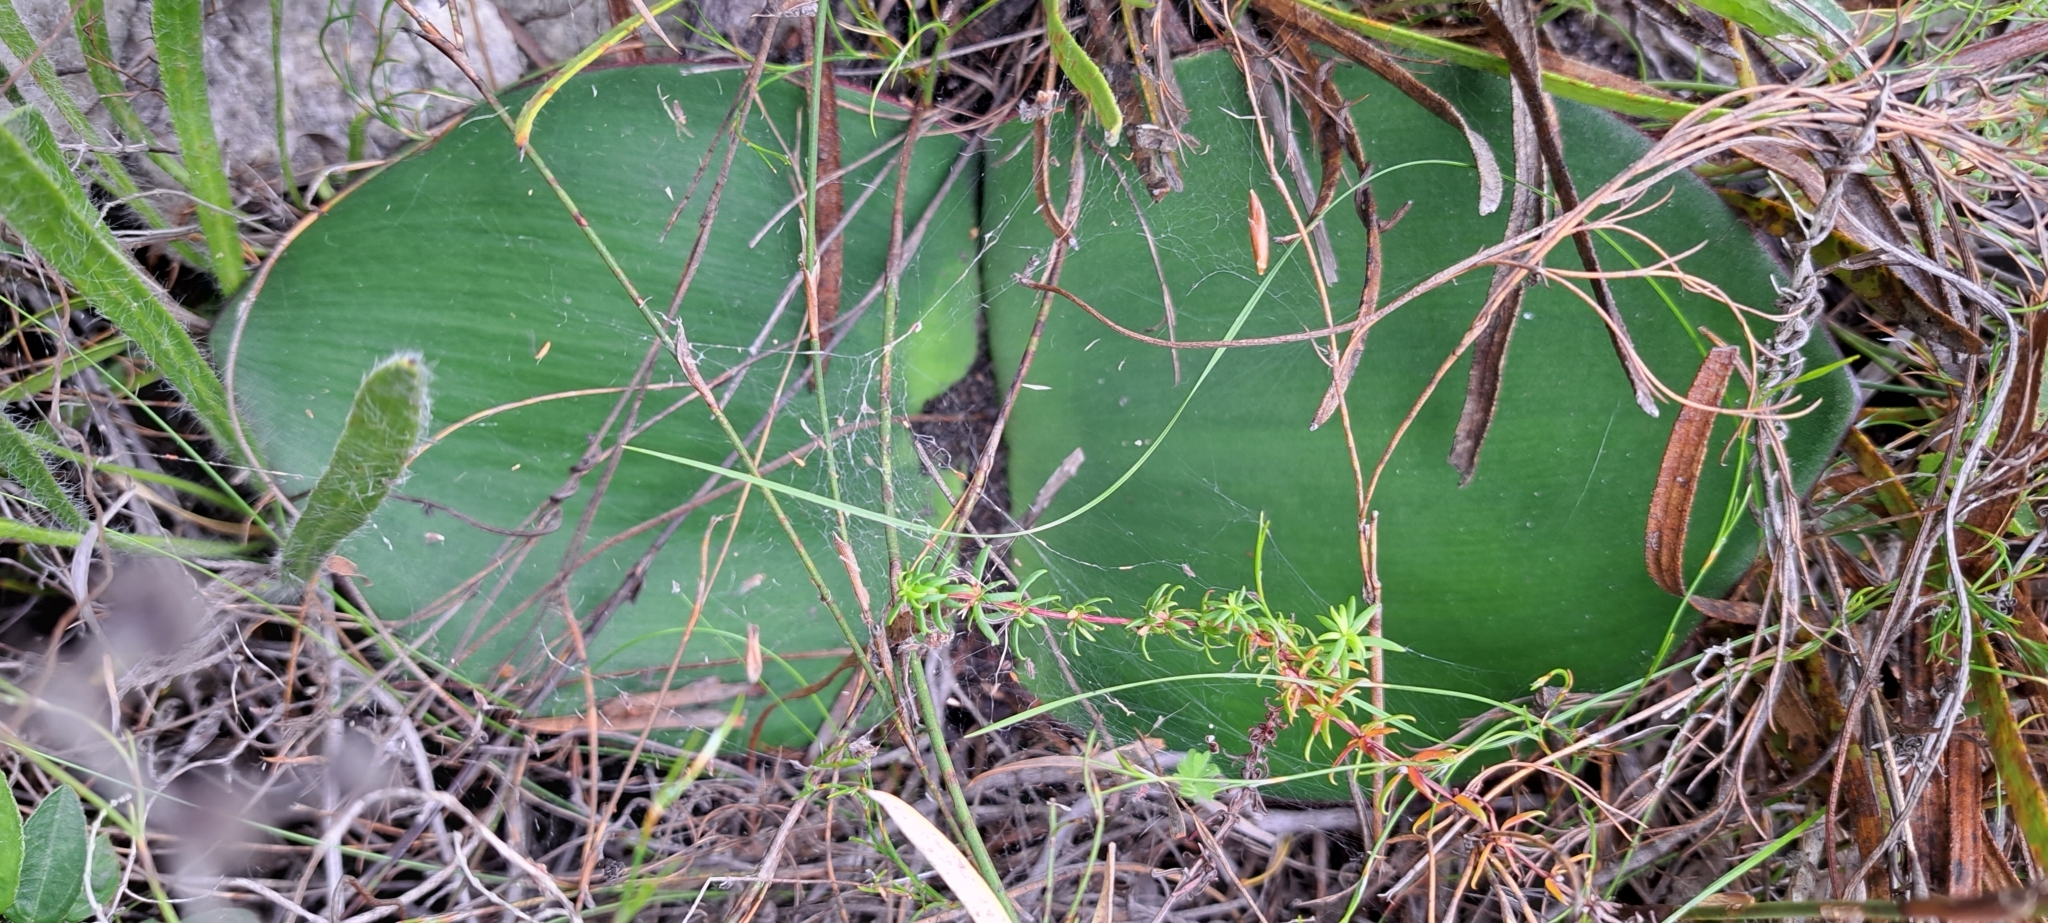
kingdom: Plantae
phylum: Tracheophyta
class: Liliopsida
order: Asparagales
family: Amaryllidaceae
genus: Haemanthus
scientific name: Haemanthus sanguineus
